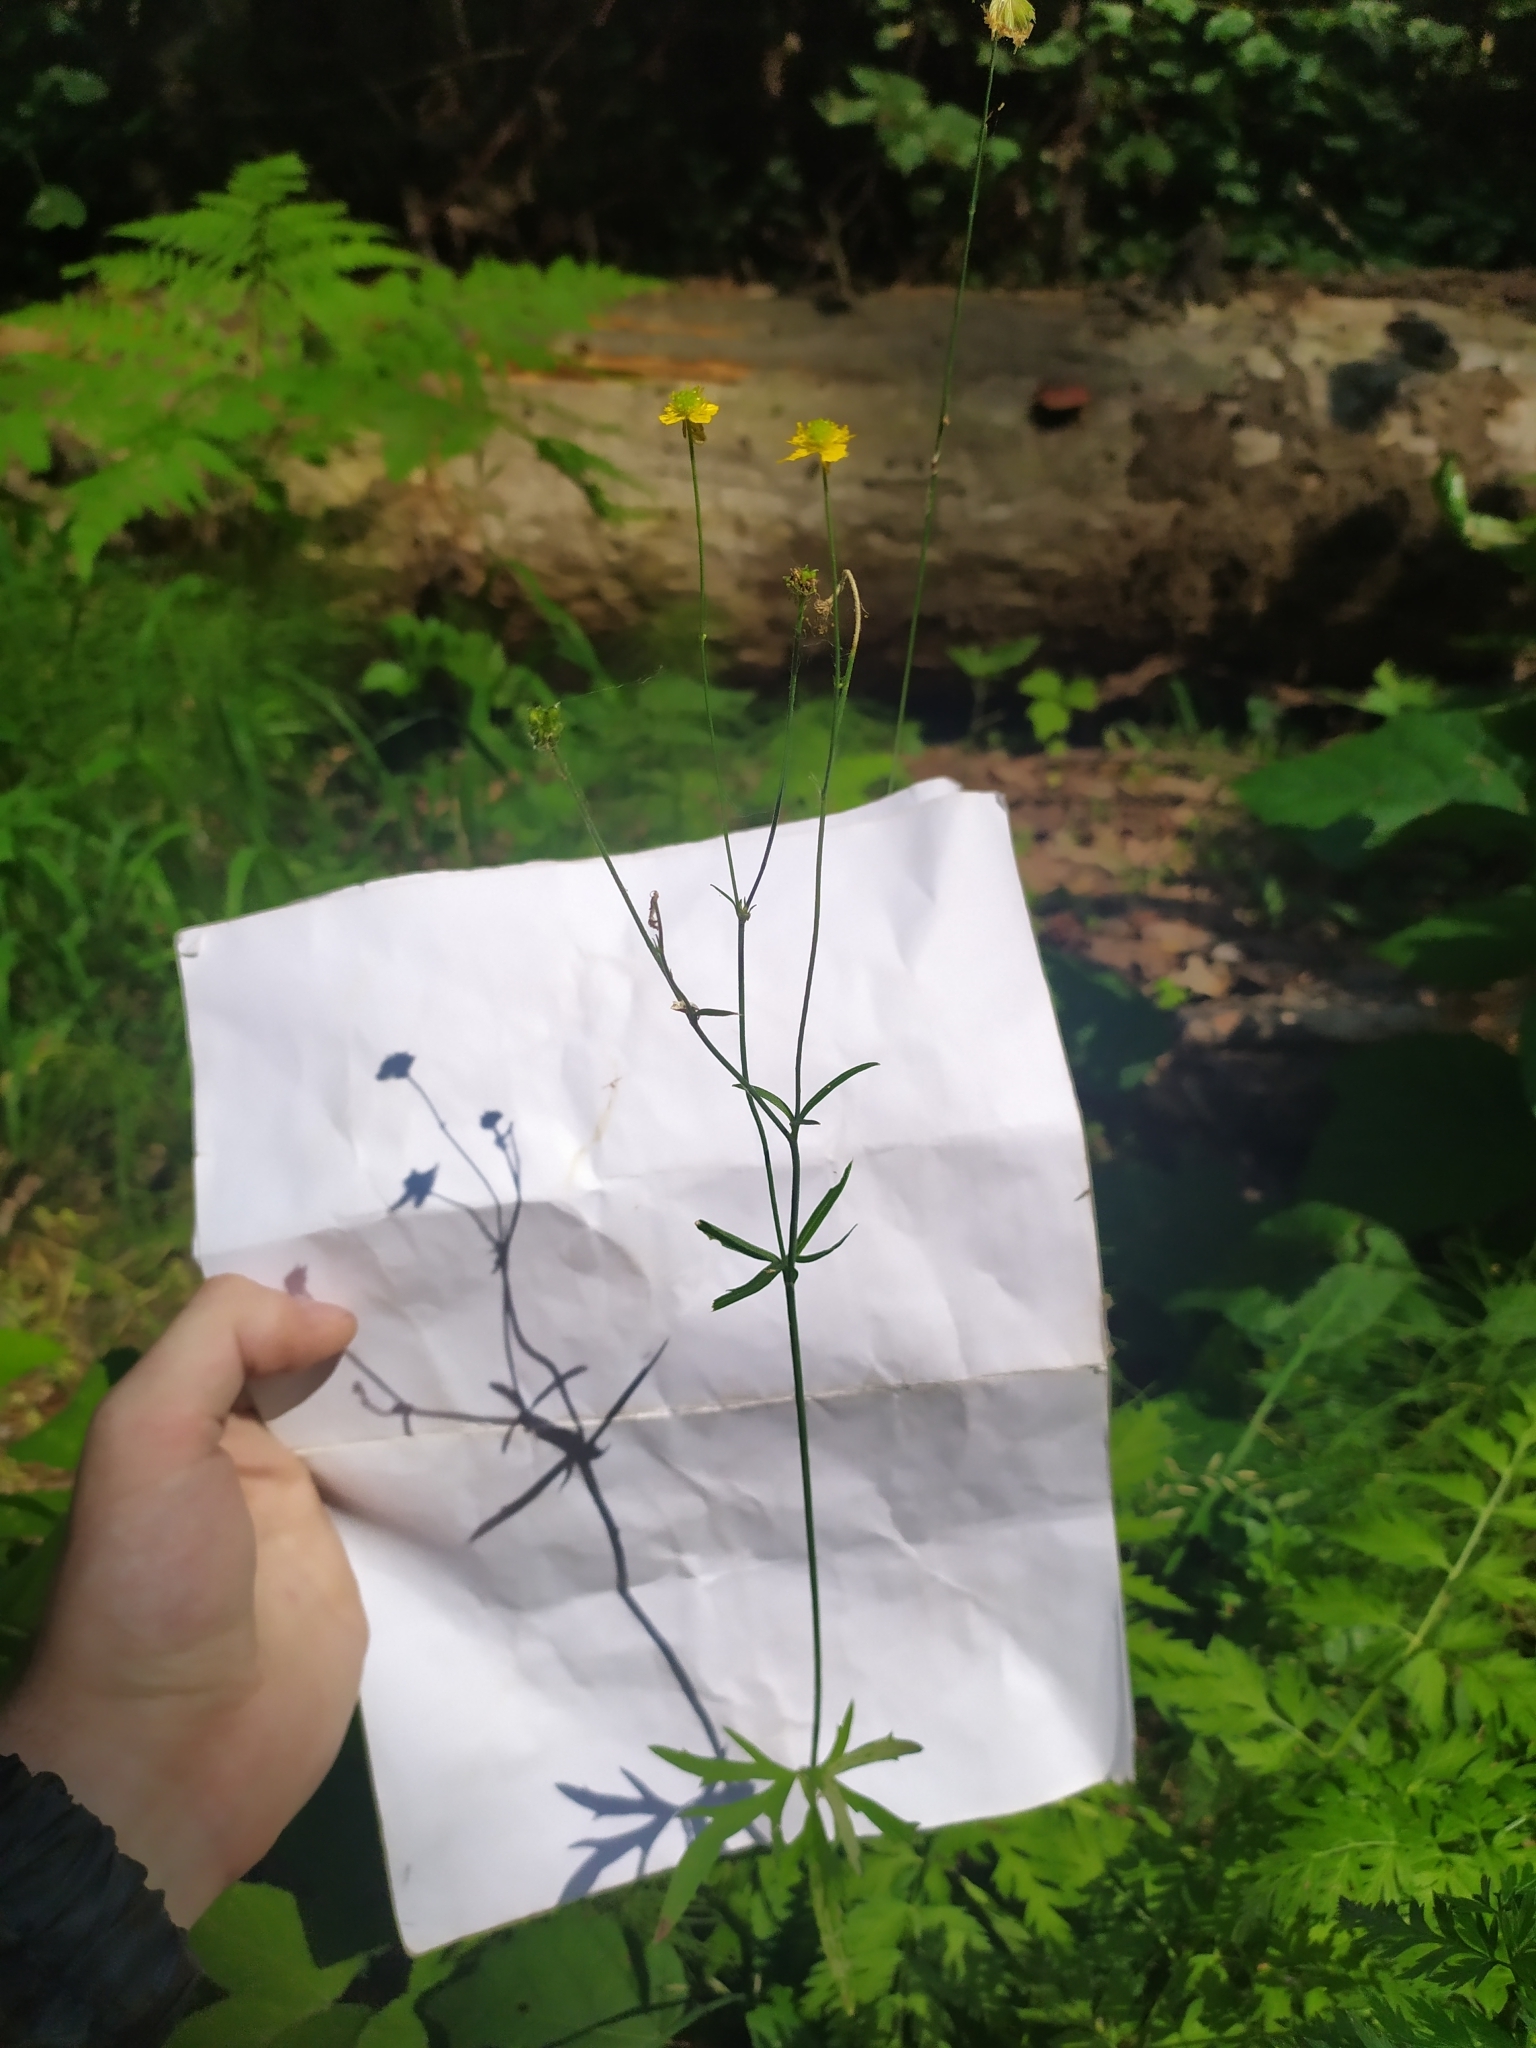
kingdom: Plantae
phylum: Tracheophyta
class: Magnoliopsida
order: Ranunculales
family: Ranunculaceae
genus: Ranunculus
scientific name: Ranunculus acris
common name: Meadow buttercup
